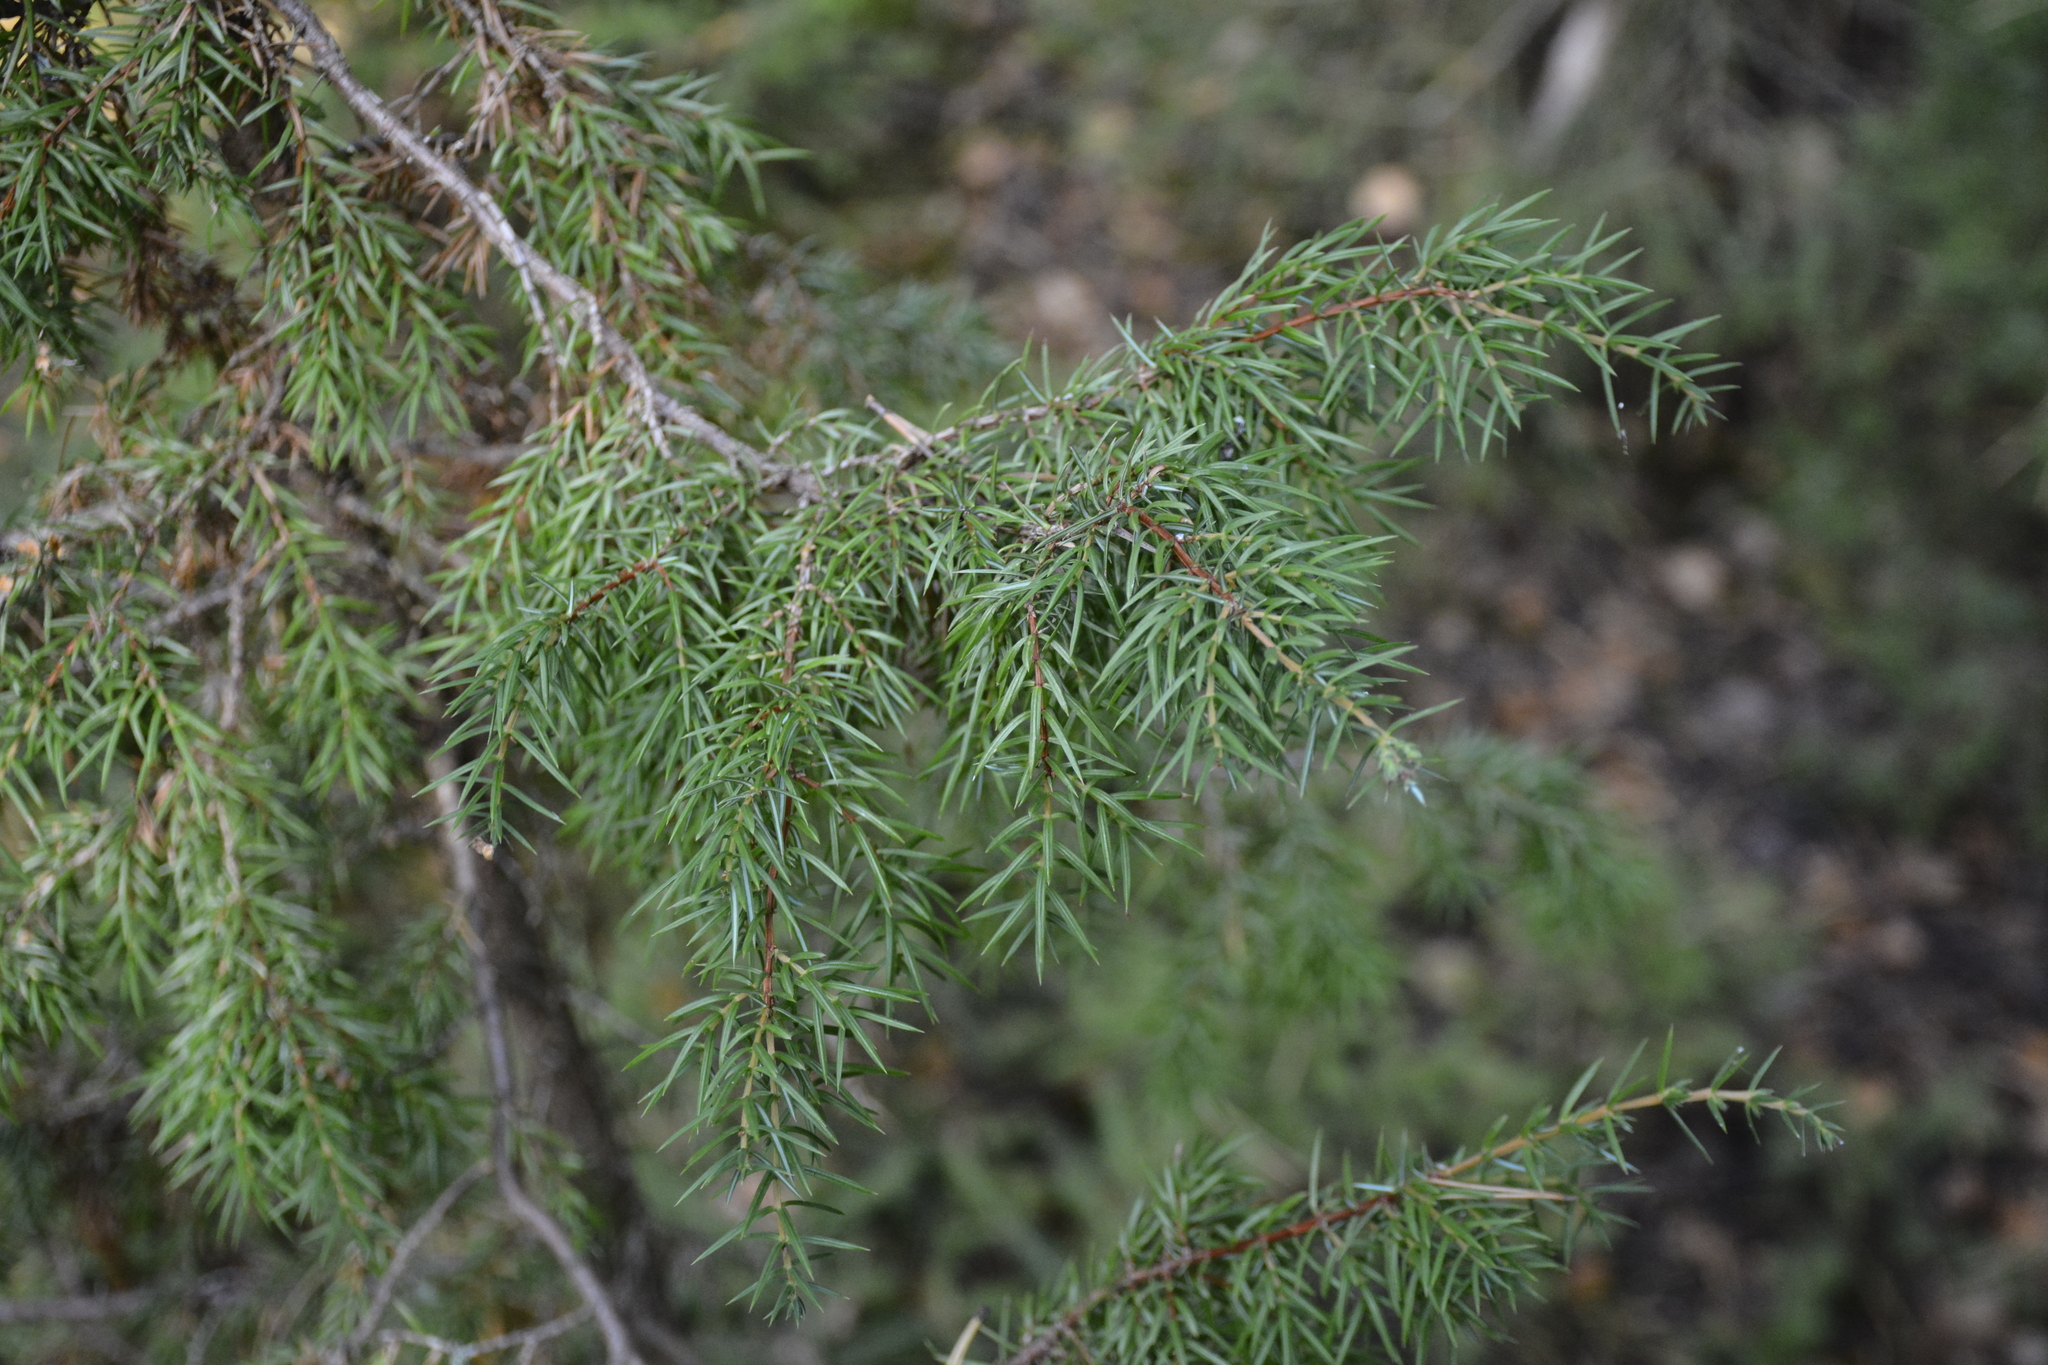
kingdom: Plantae
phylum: Tracheophyta
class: Pinopsida
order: Pinales
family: Cupressaceae
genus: Juniperus
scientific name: Juniperus communis
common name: Common juniper
